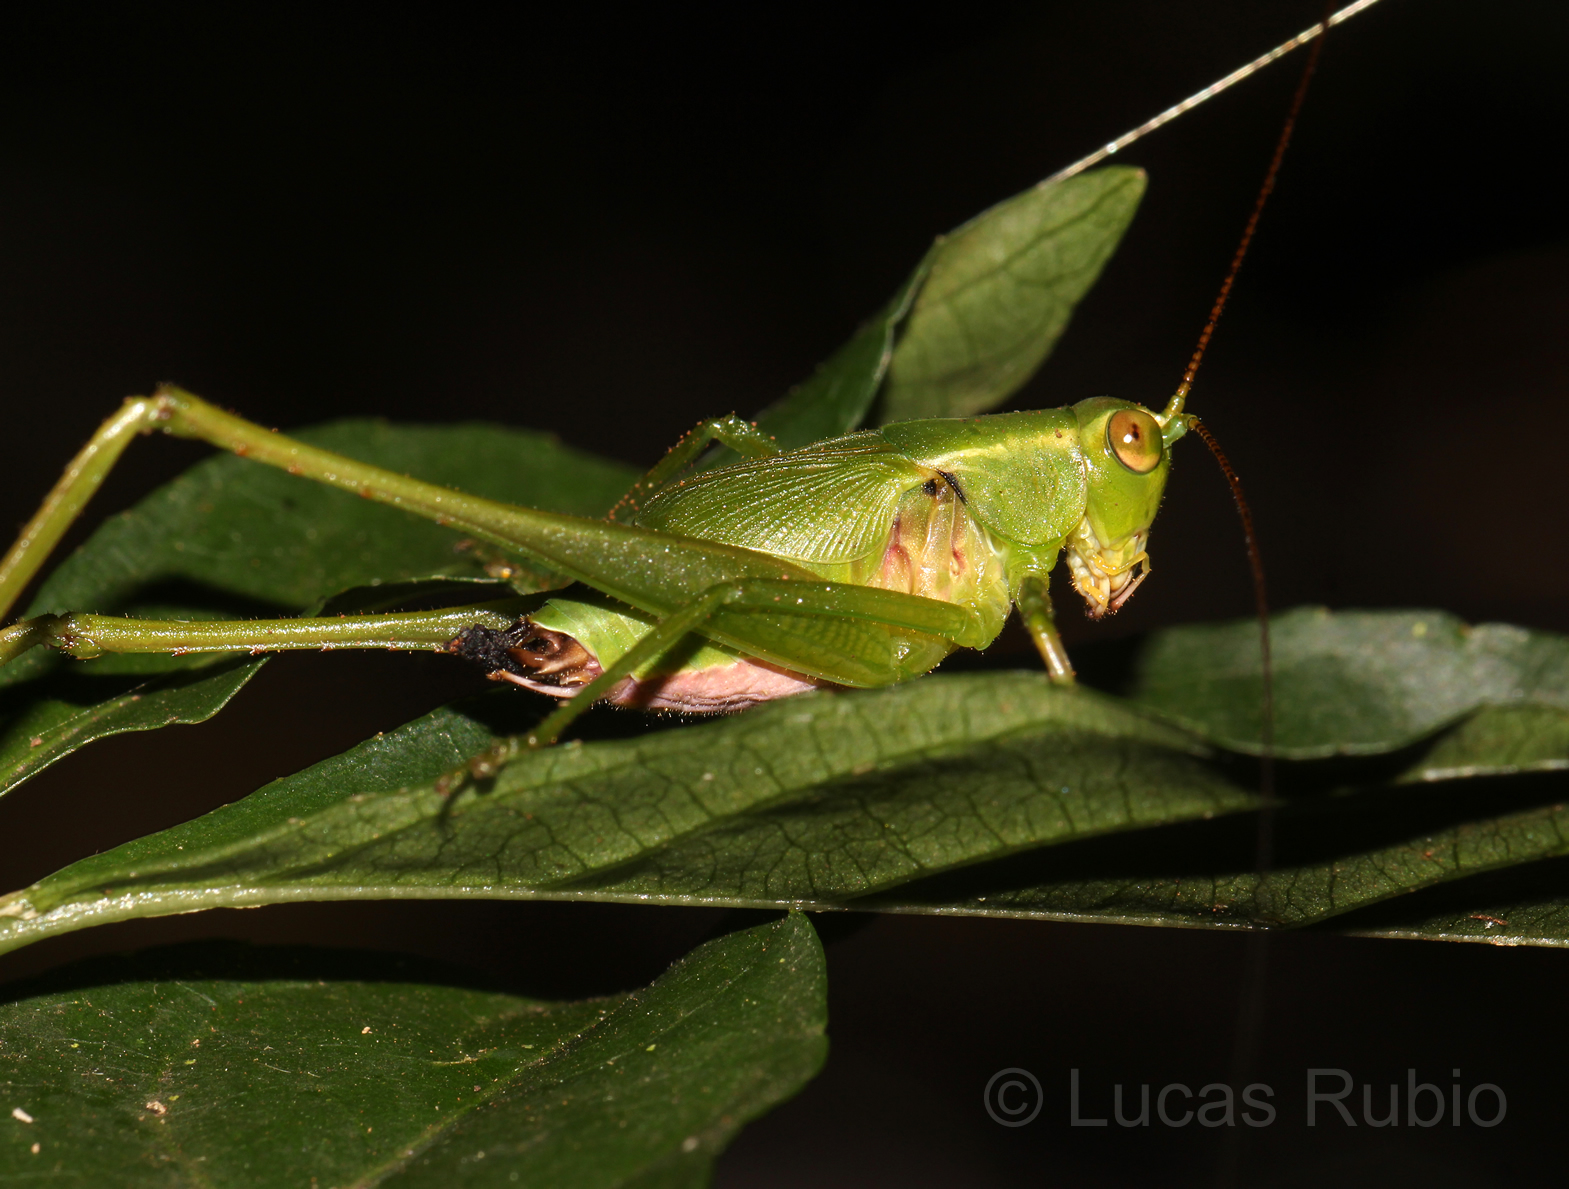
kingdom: Animalia
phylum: Arthropoda
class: Insecta
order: Orthoptera
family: Tettigoniidae
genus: Ceraia
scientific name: Ceraia cornutoides
